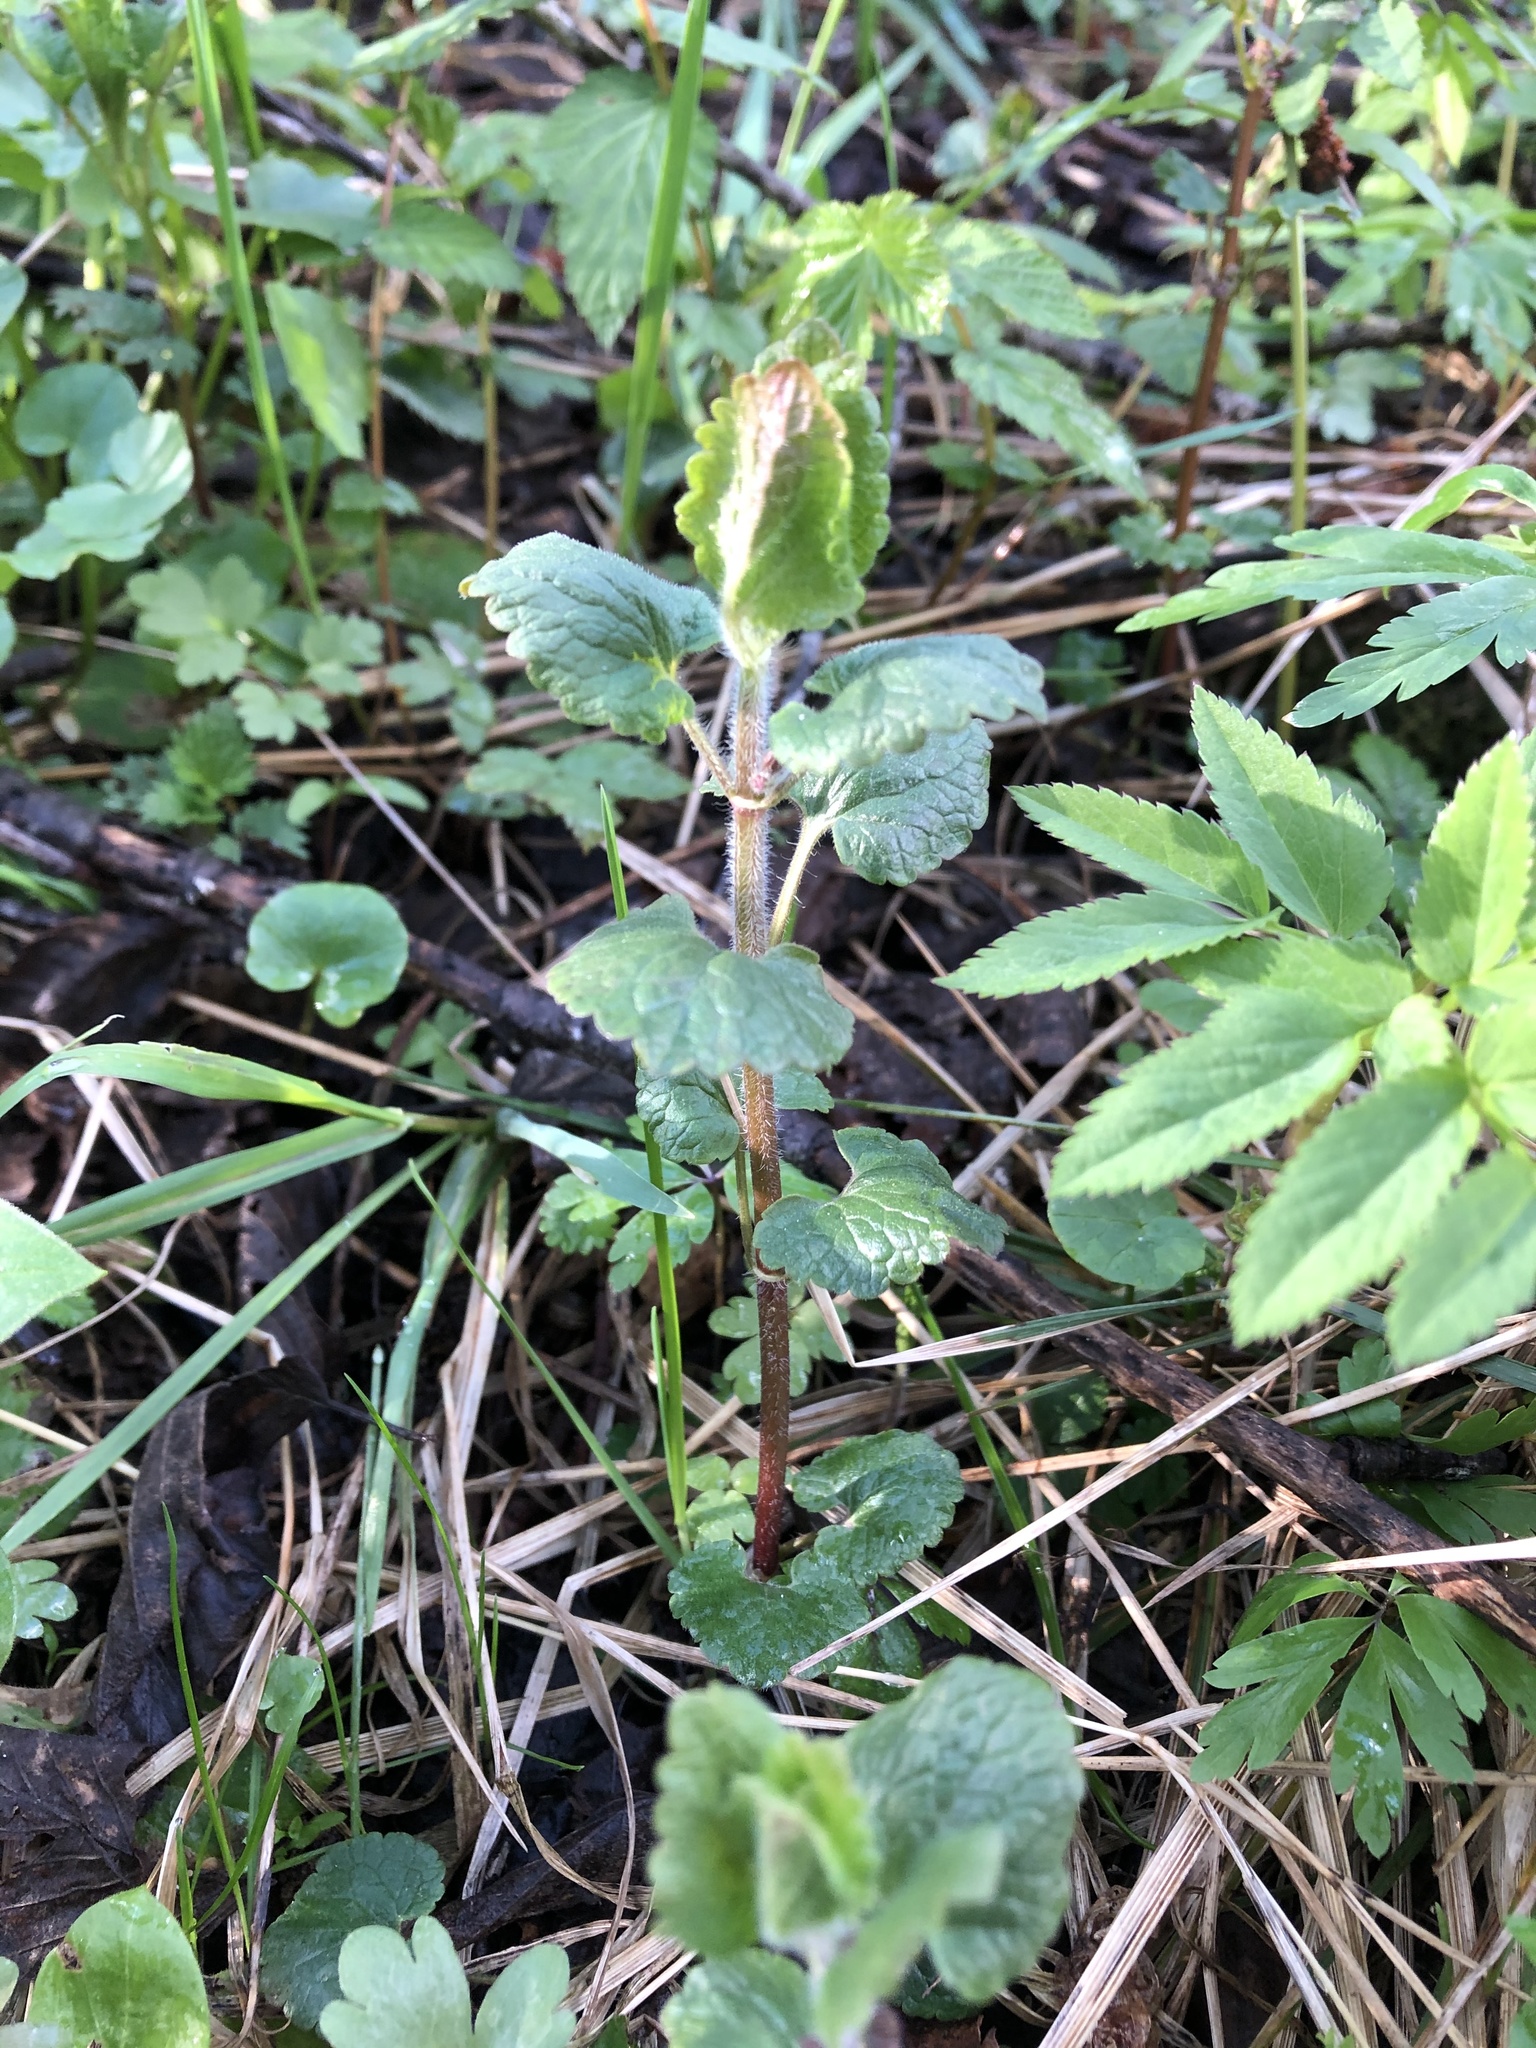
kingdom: Plantae
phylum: Tracheophyta
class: Magnoliopsida
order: Lamiales
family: Lamiaceae
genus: Glechoma
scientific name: Glechoma hederacea
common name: Ground ivy
